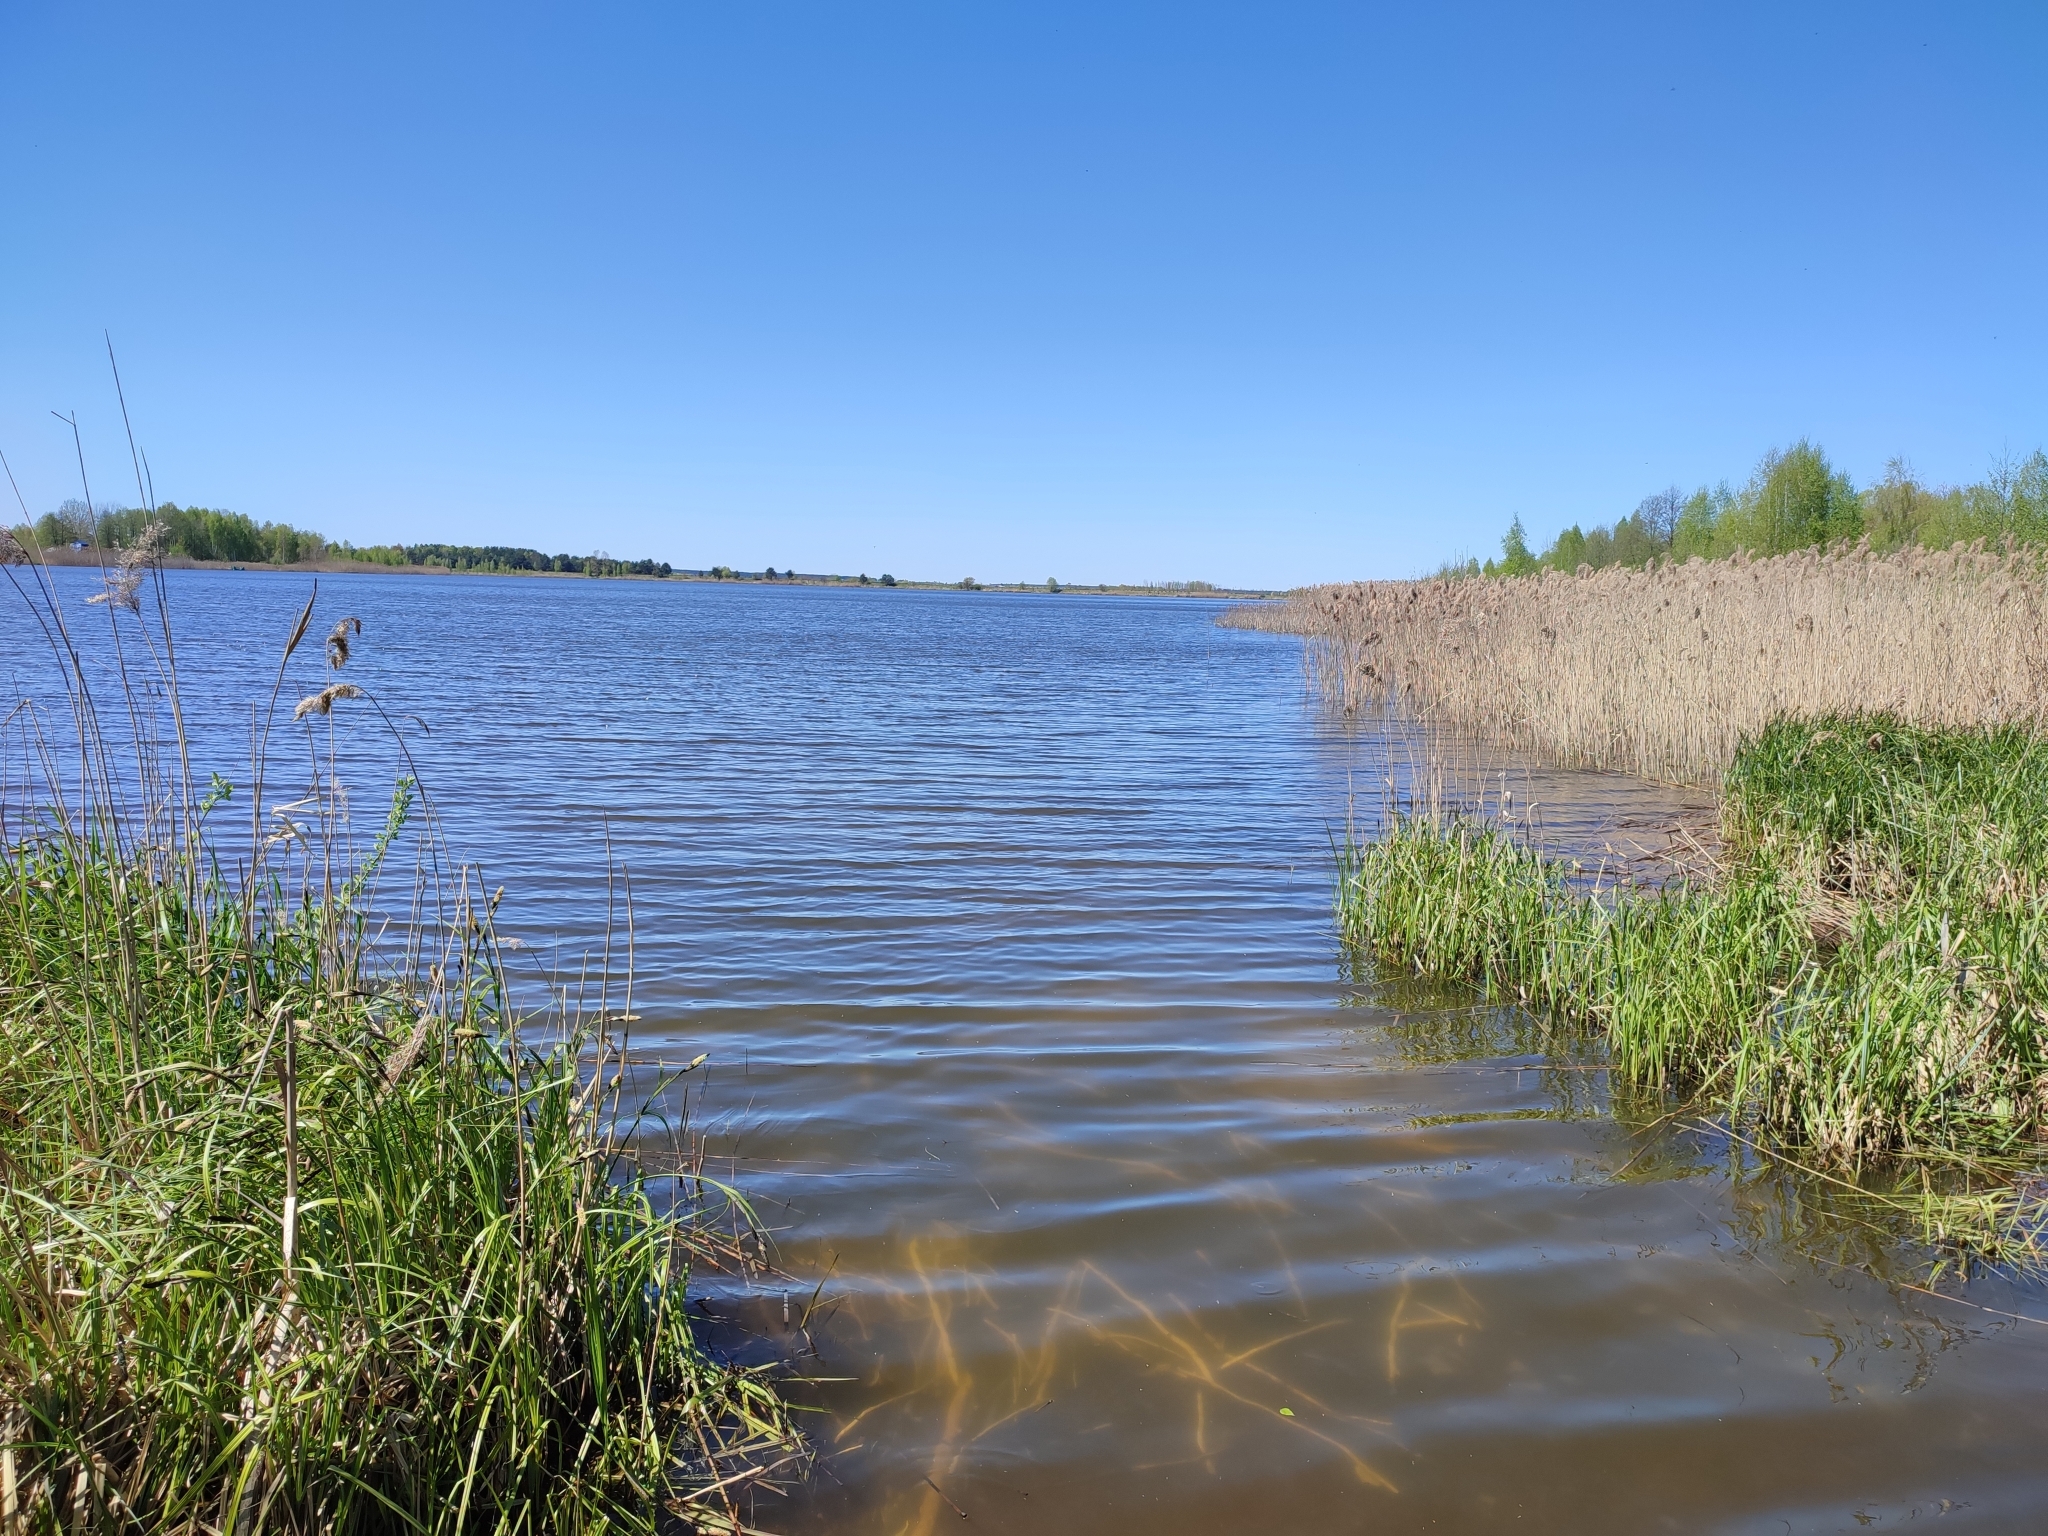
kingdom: Plantae
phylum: Tracheophyta
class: Liliopsida
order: Poales
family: Poaceae
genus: Phragmites
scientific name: Phragmites australis
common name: Common reed
